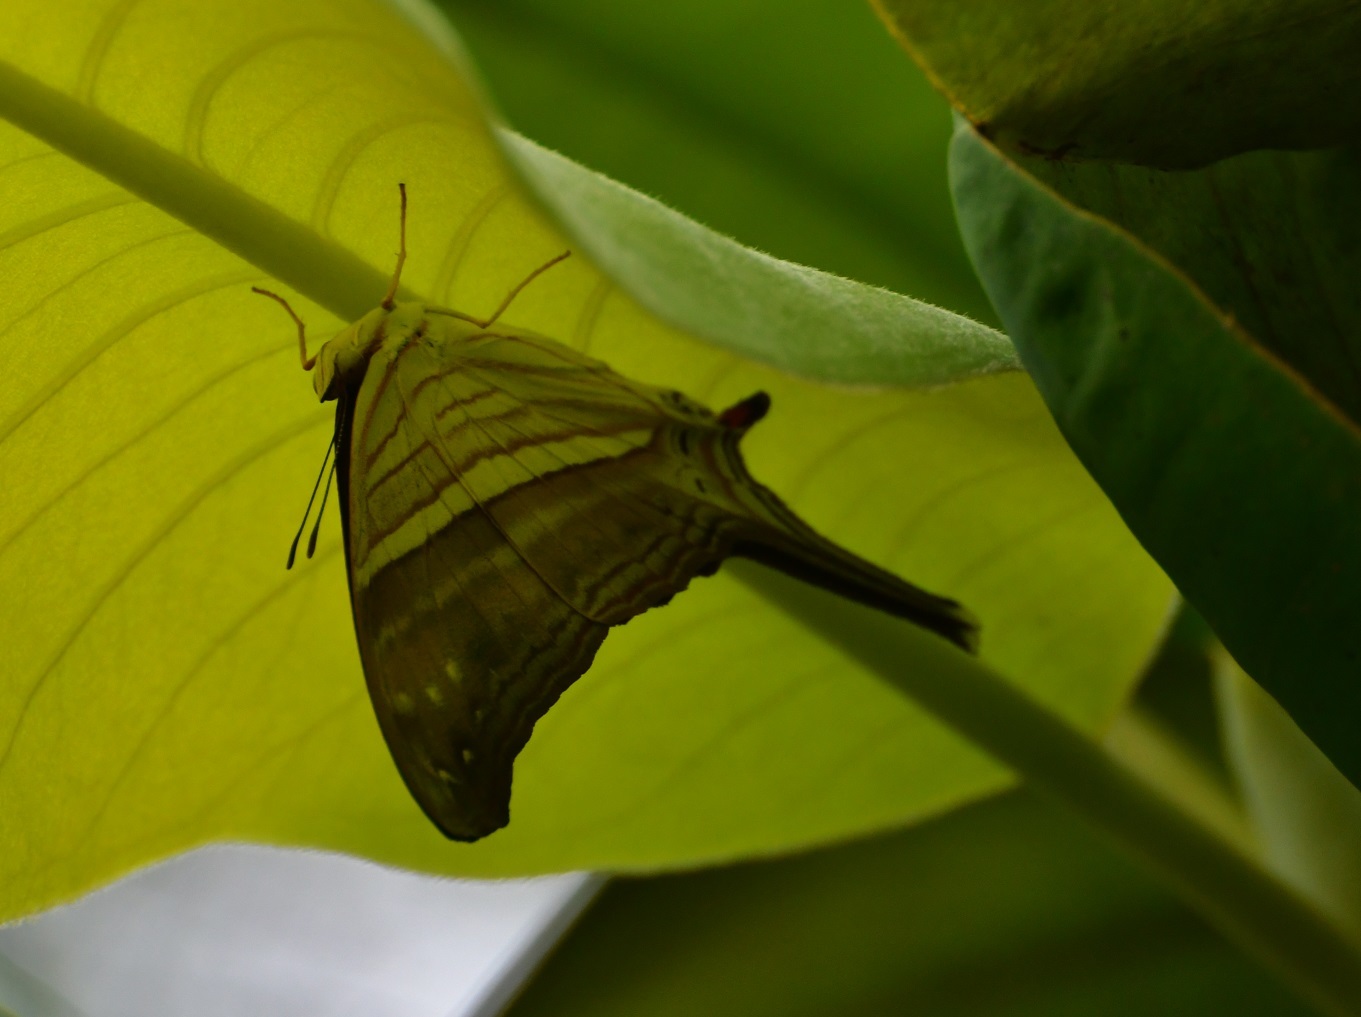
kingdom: Animalia
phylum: Arthropoda
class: Insecta
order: Lepidoptera
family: Nymphalidae
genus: Marpesia
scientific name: Marpesia chiron
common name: Many-banded daggerwing
